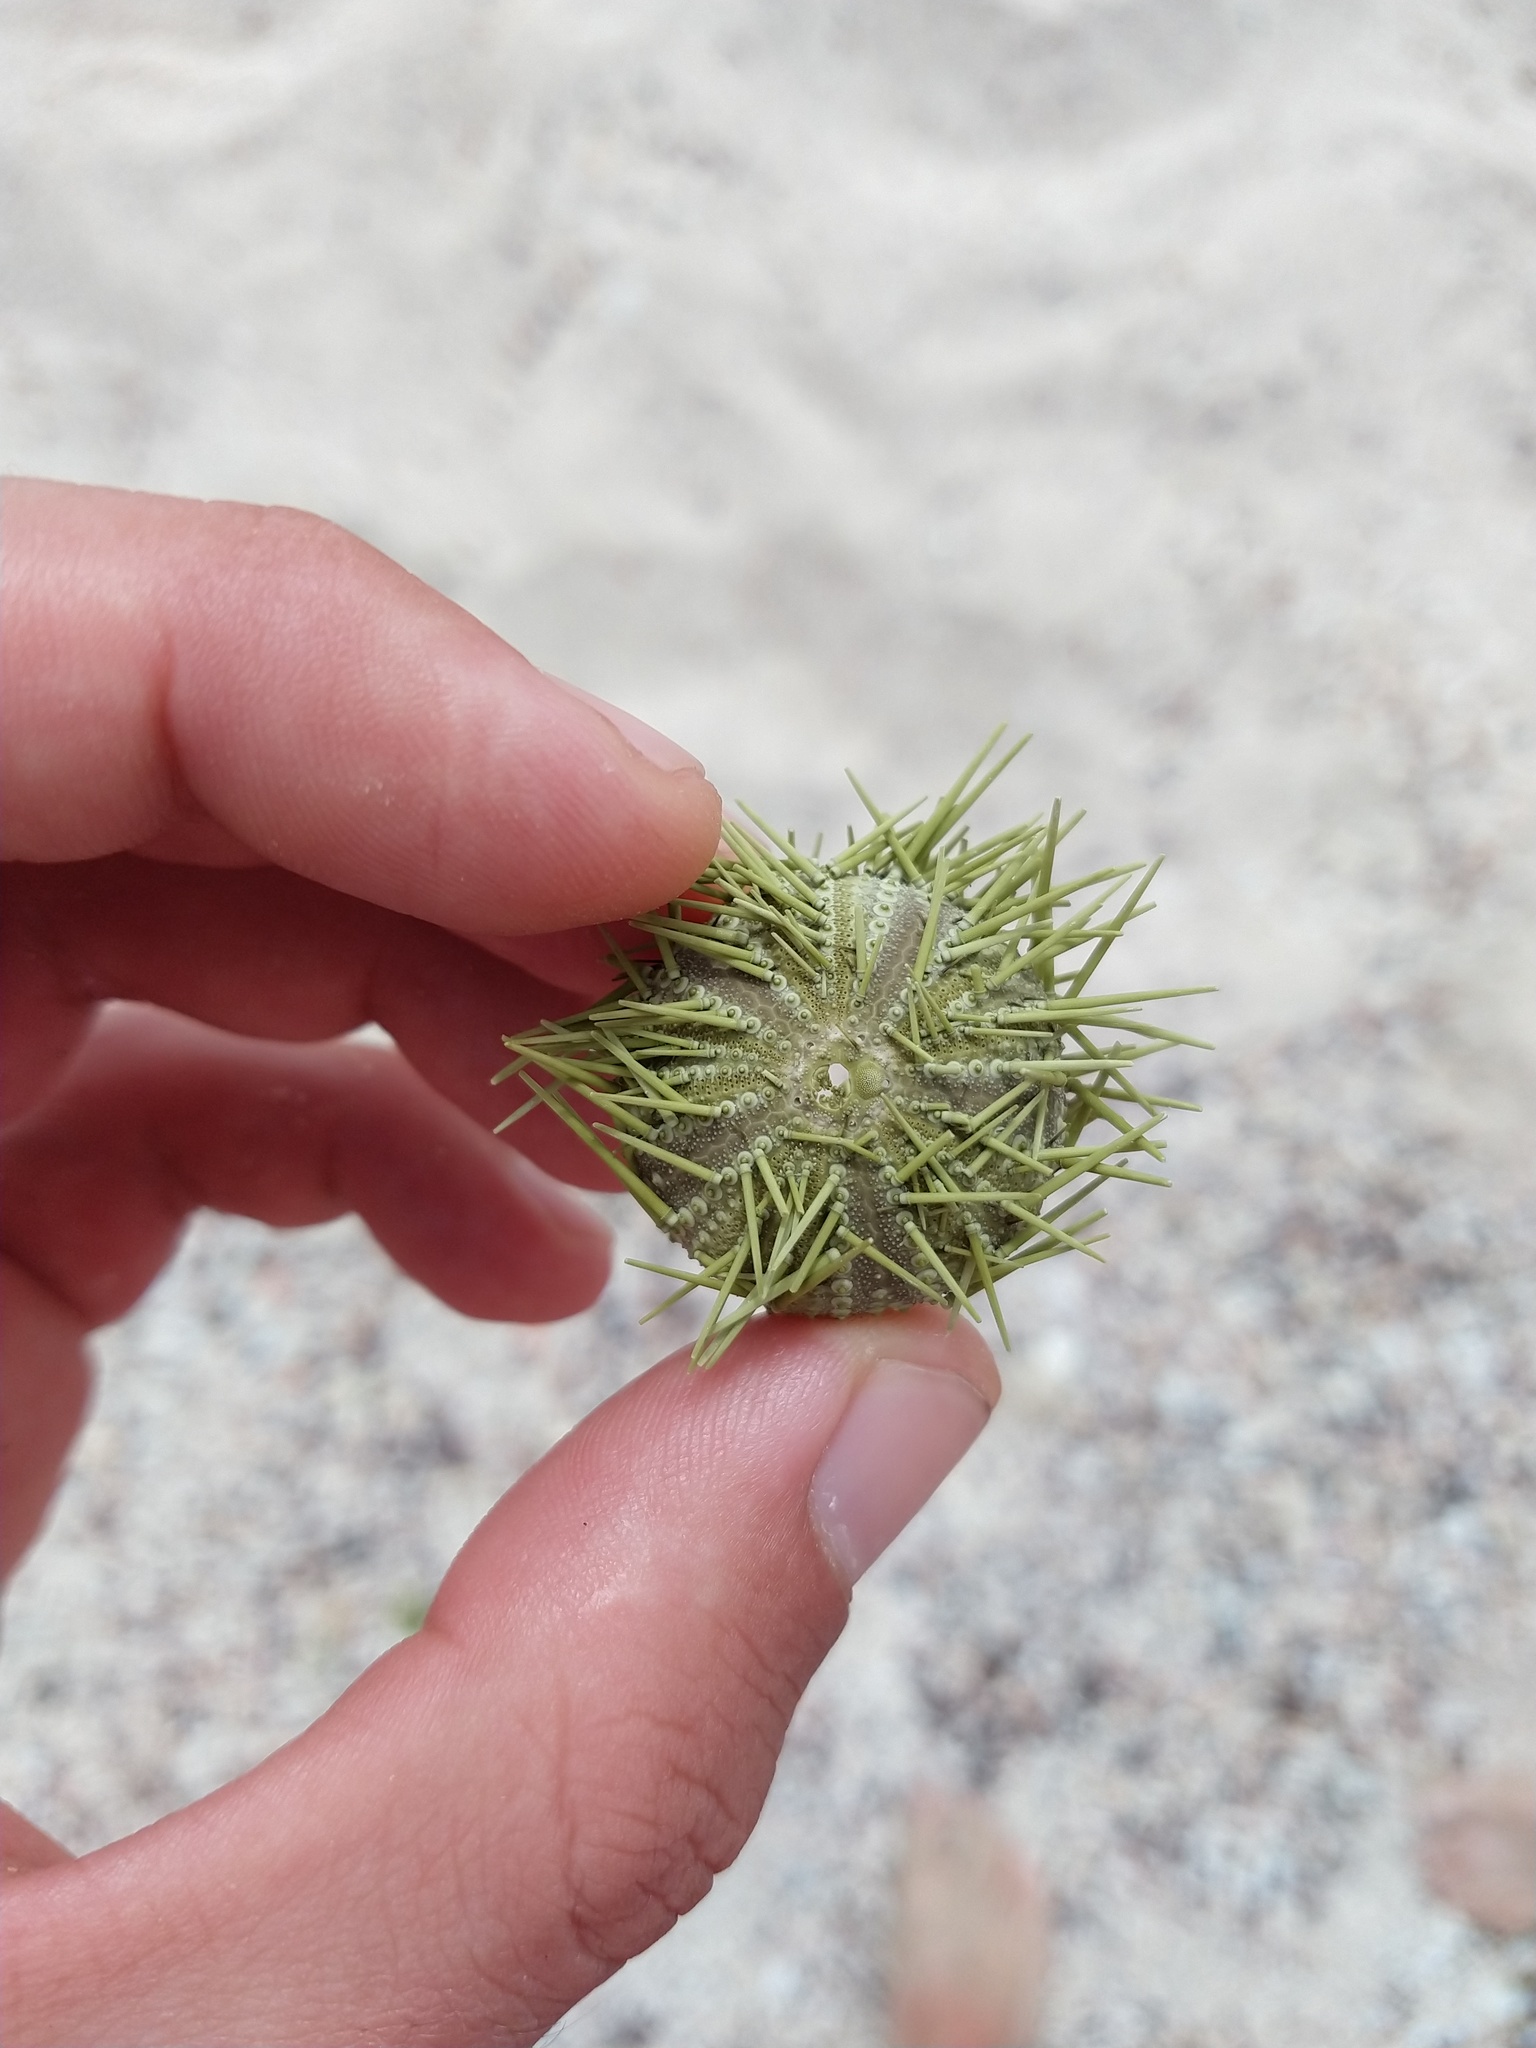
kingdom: Animalia
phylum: Echinodermata
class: Echinoidea
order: Camarodonta
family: Toxopneustidae
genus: Lytechinus
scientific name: Lytechinus semituberculatus
